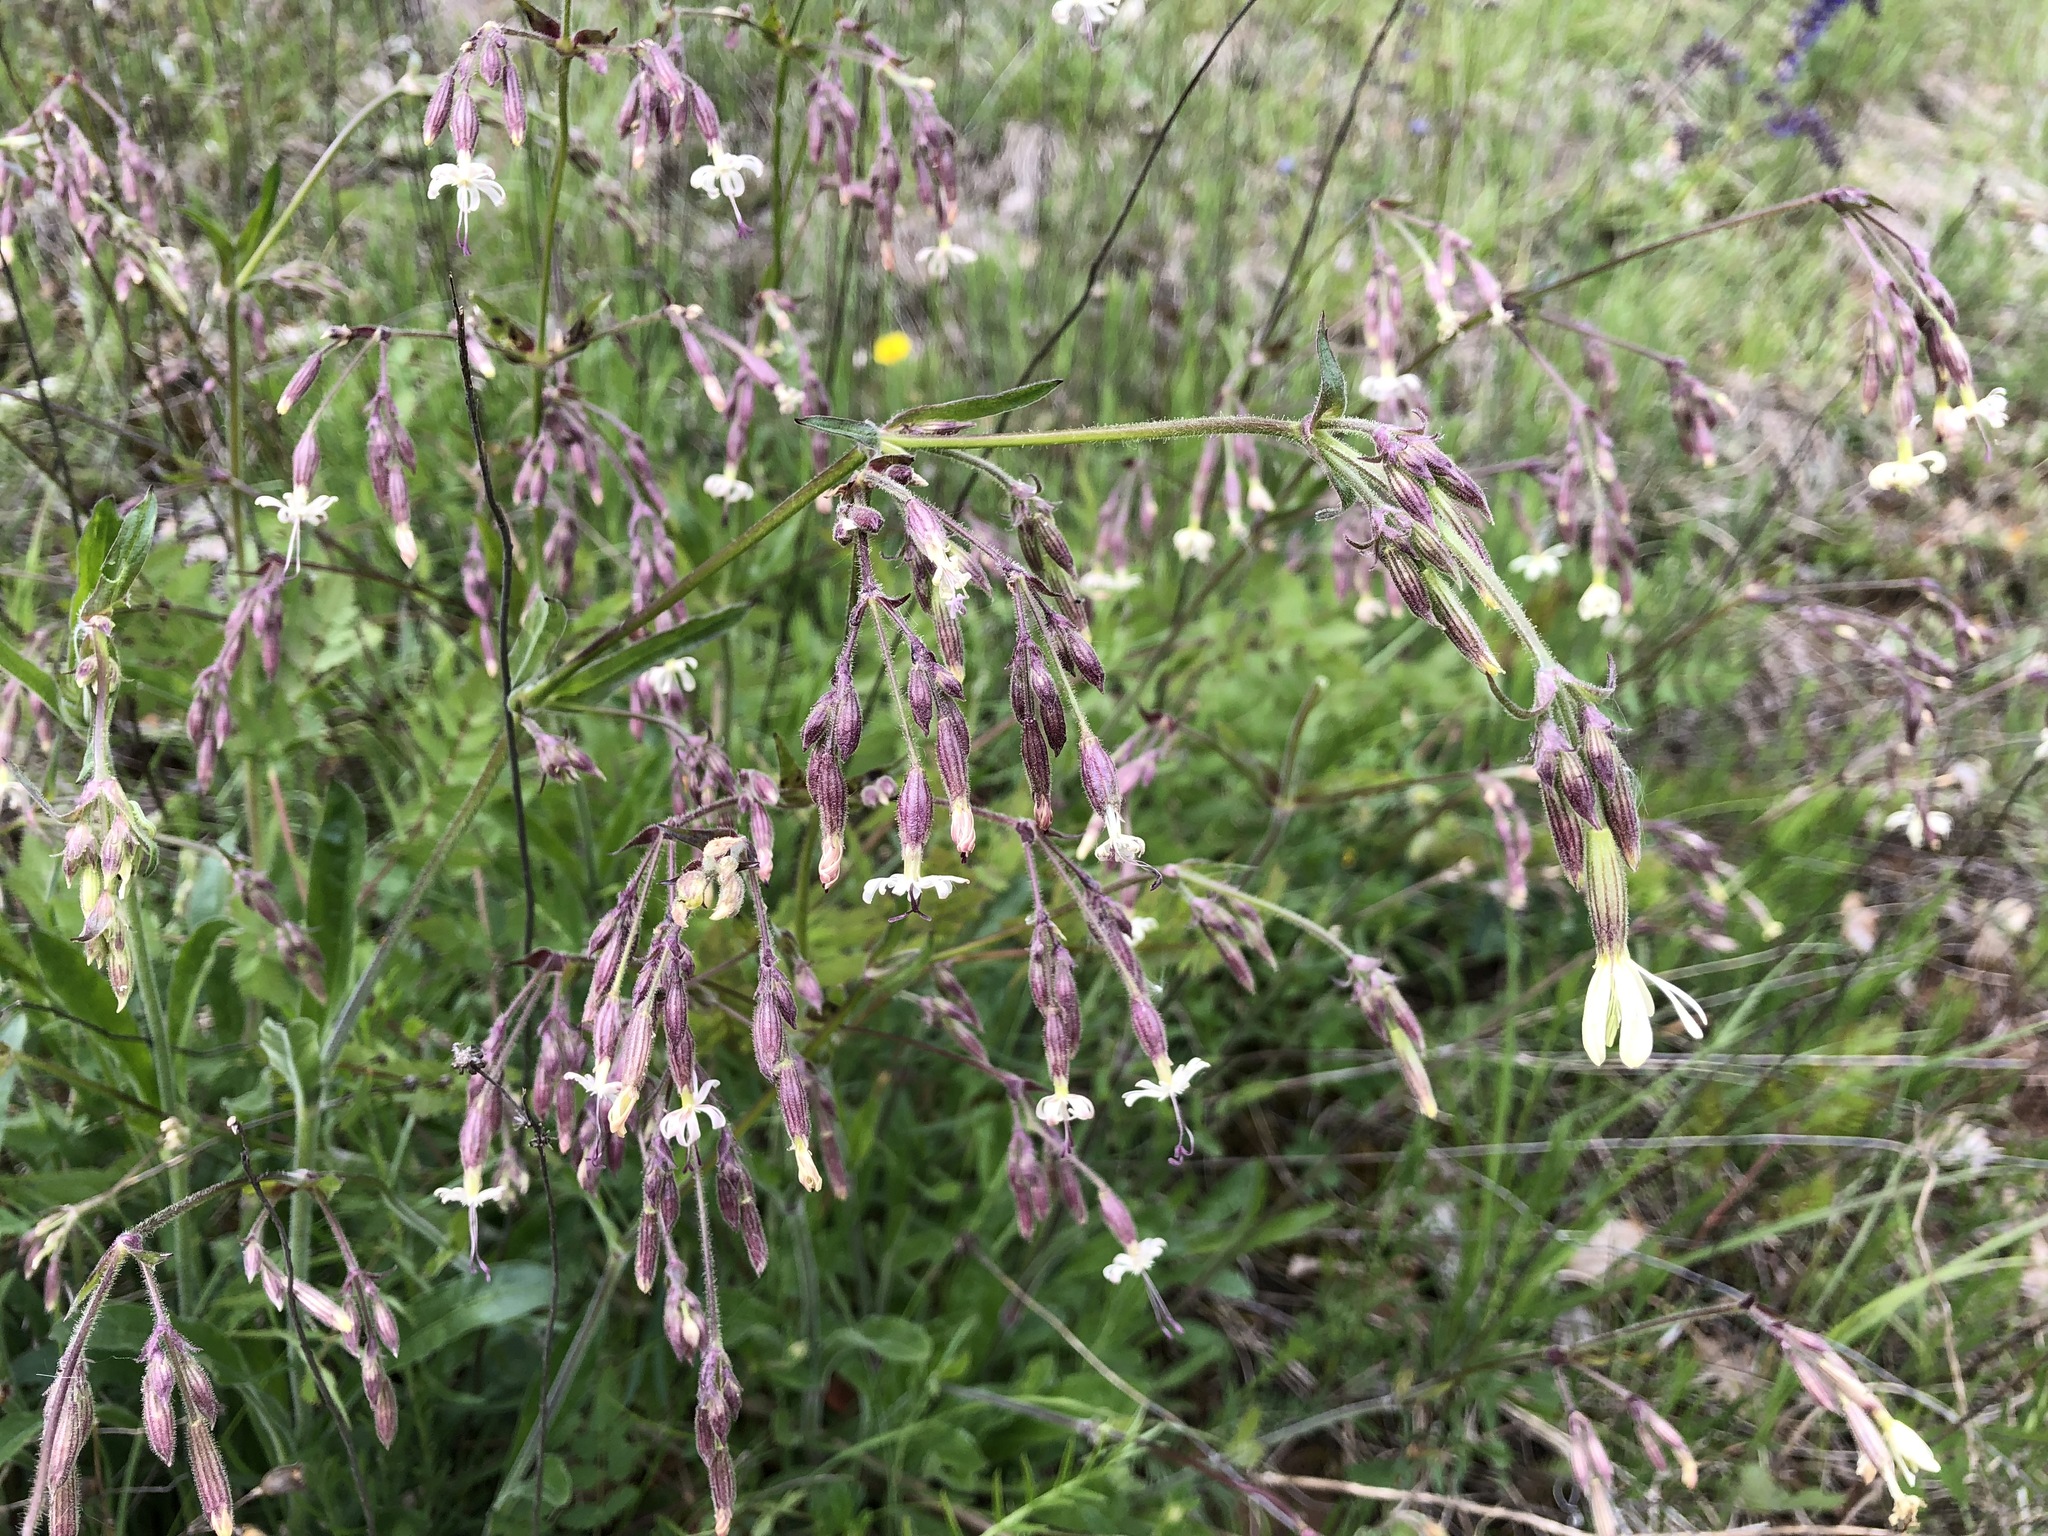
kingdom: Plantae
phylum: Tracheophyta
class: Magnoliopsida
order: Caryophyllales
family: Caryophyllaceae
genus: Silene
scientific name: Silene nutans
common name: Nottingham catchfly
